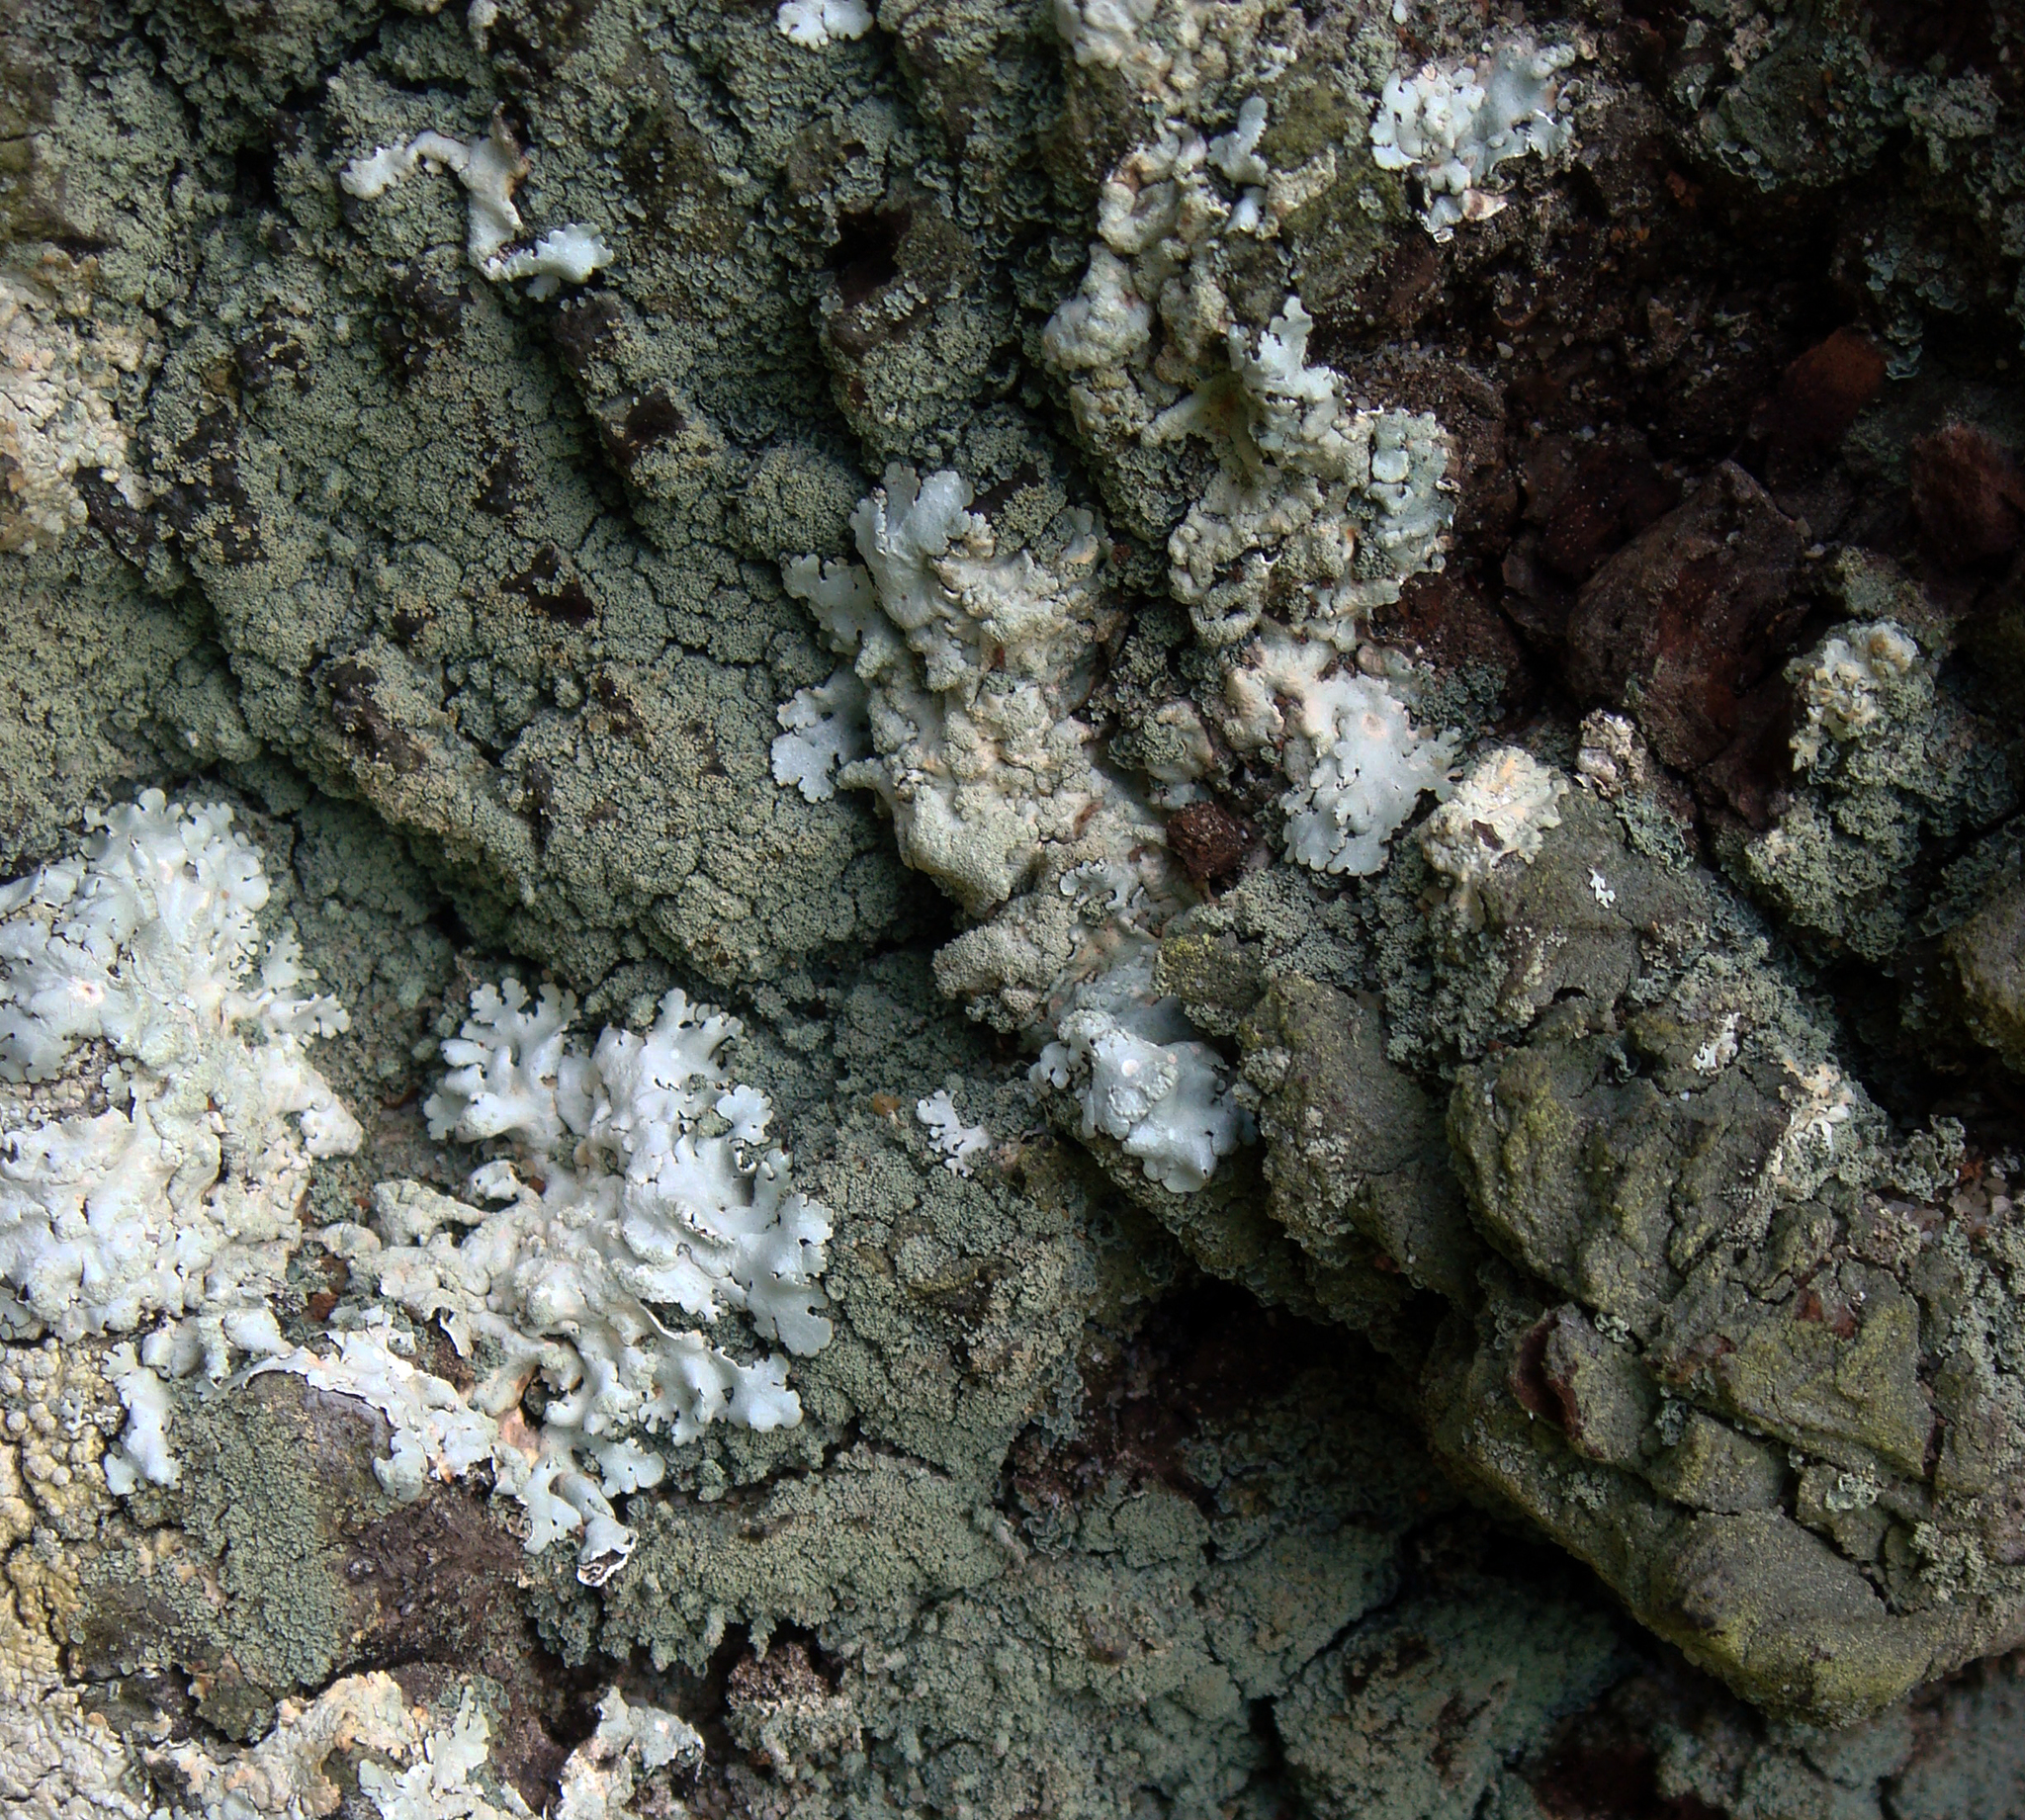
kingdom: Fungi
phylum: Ascomycota
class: Lecanoromycetes
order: Lecanorales
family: Cladoniaceae
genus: Cladia
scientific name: Cladia schizopora
